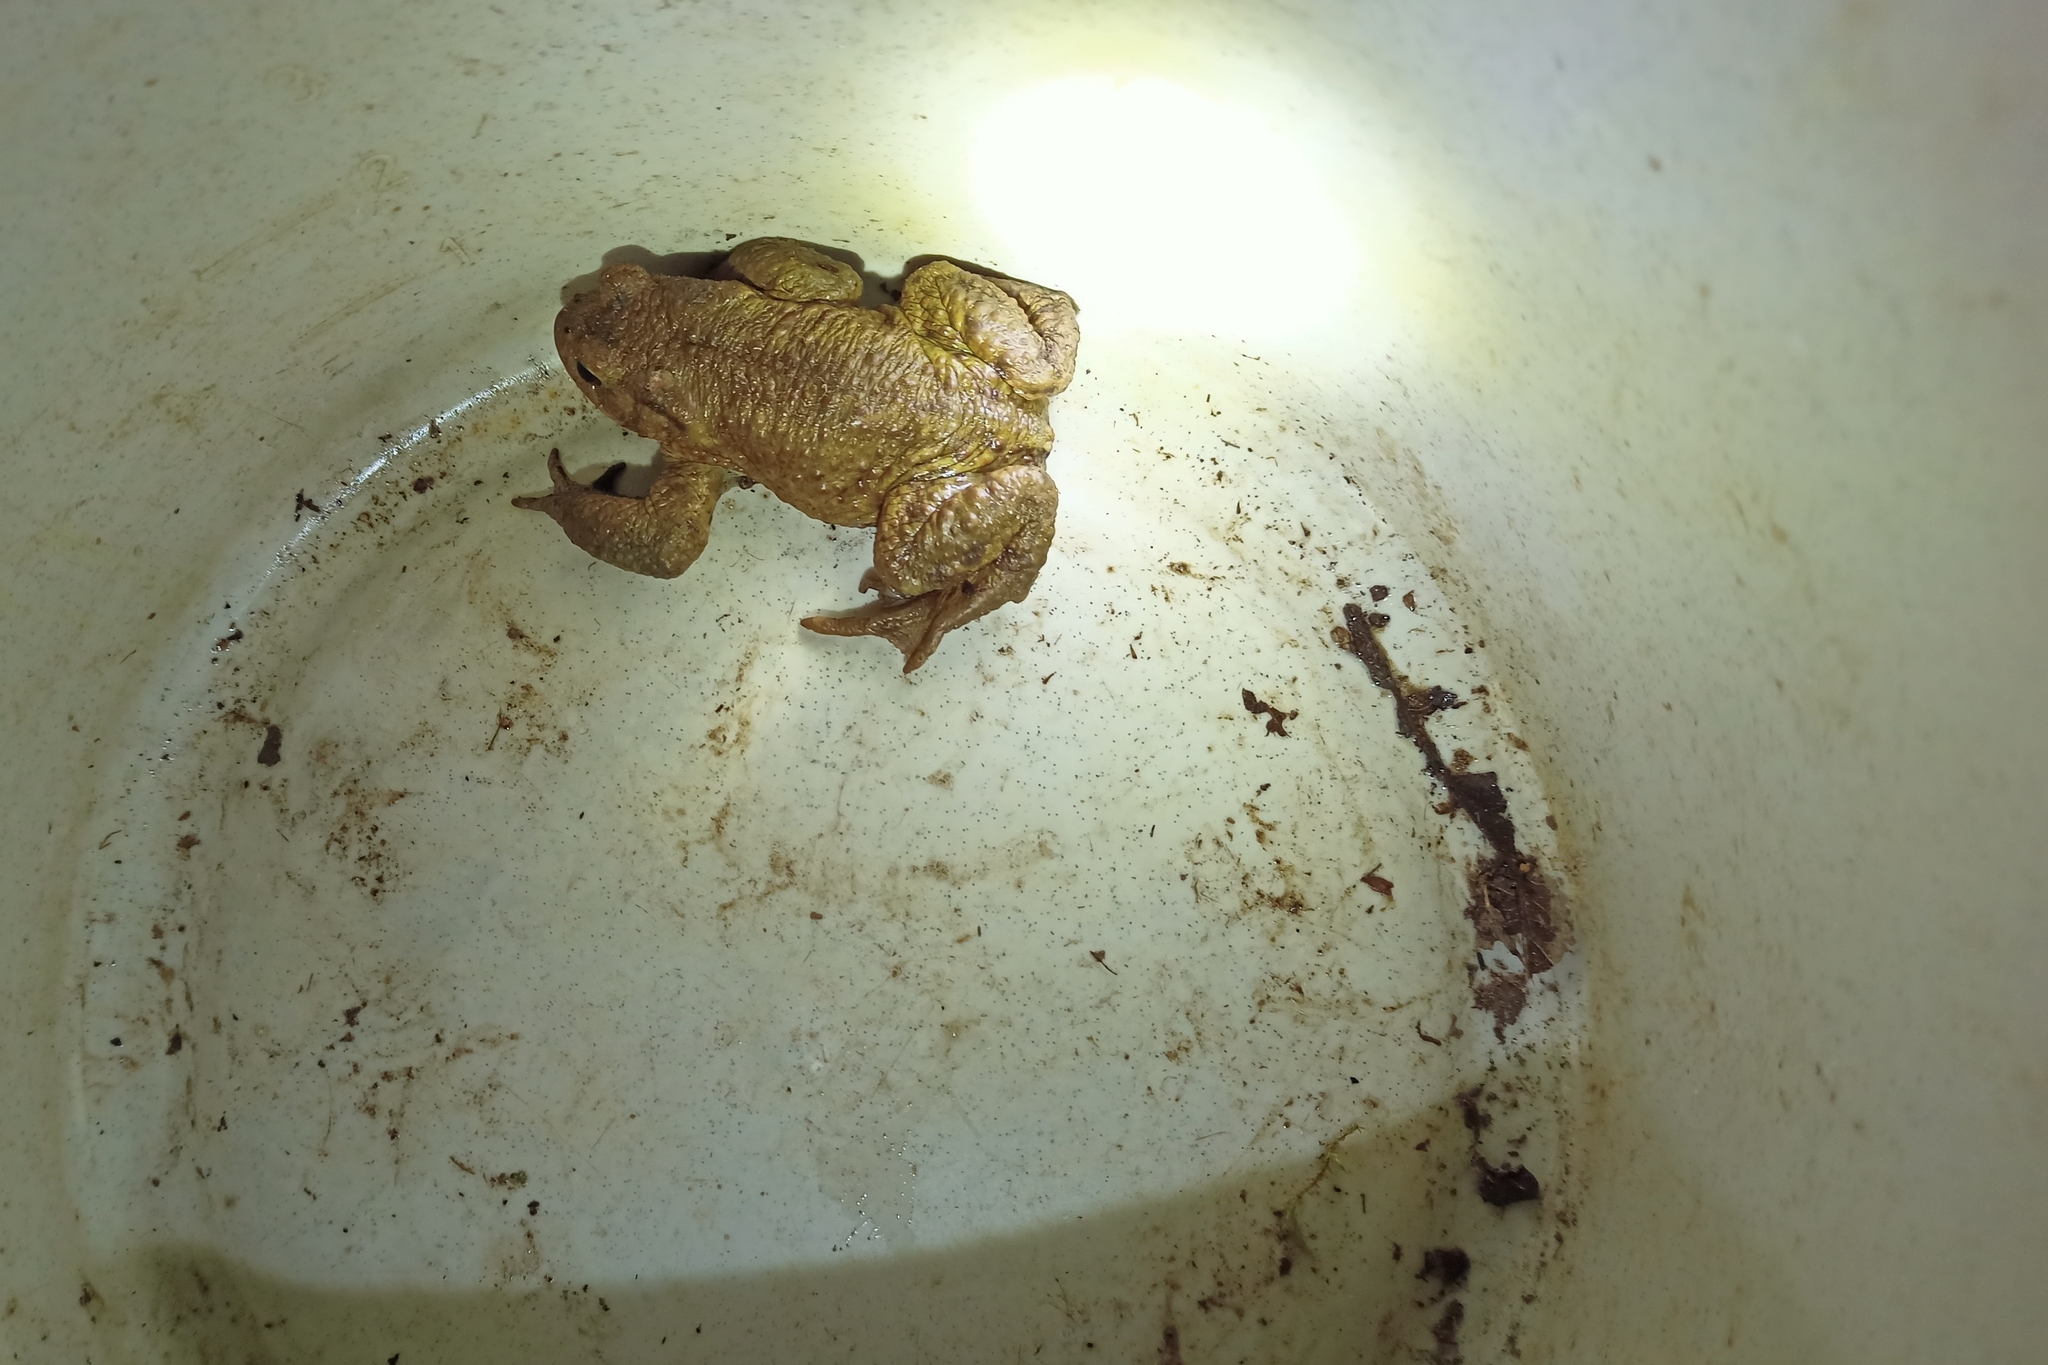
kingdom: Animalia
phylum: Chordata
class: Amphibia
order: Anura
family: Bufonidae
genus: Bufo
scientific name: Bufo bufo
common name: Common toad
